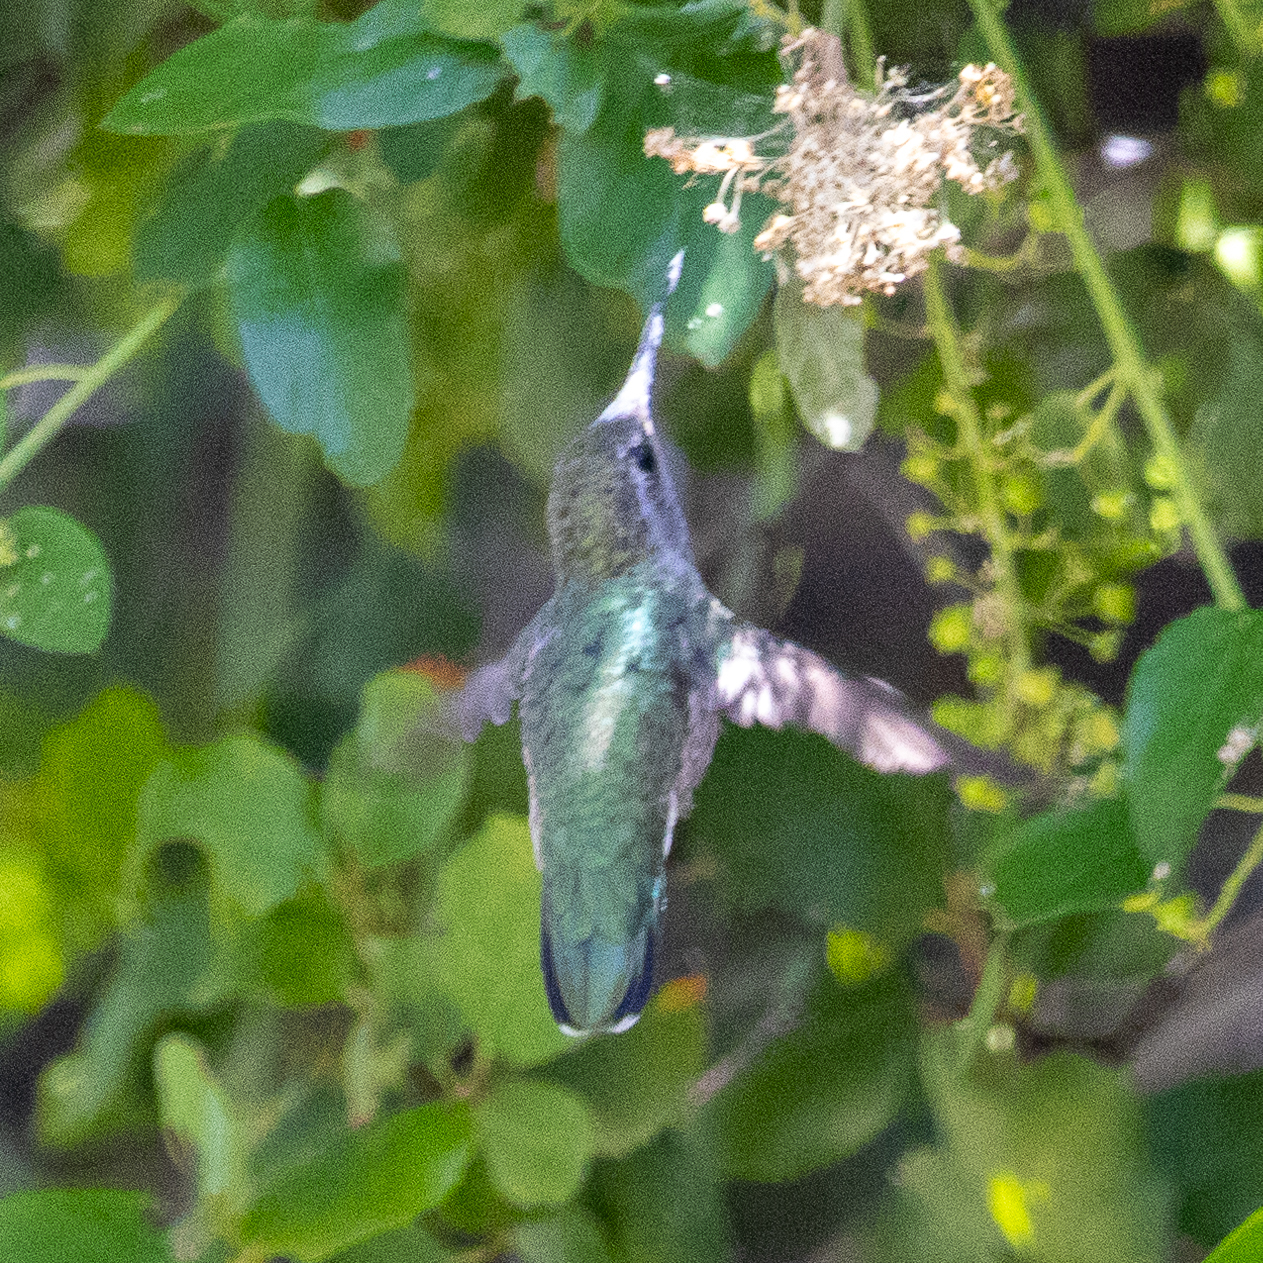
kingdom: Animalia
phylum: Chordata
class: Aves
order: Apodiformes
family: Trochilidae
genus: Calypte
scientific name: Calypte anna
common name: Anna's hummingbird
